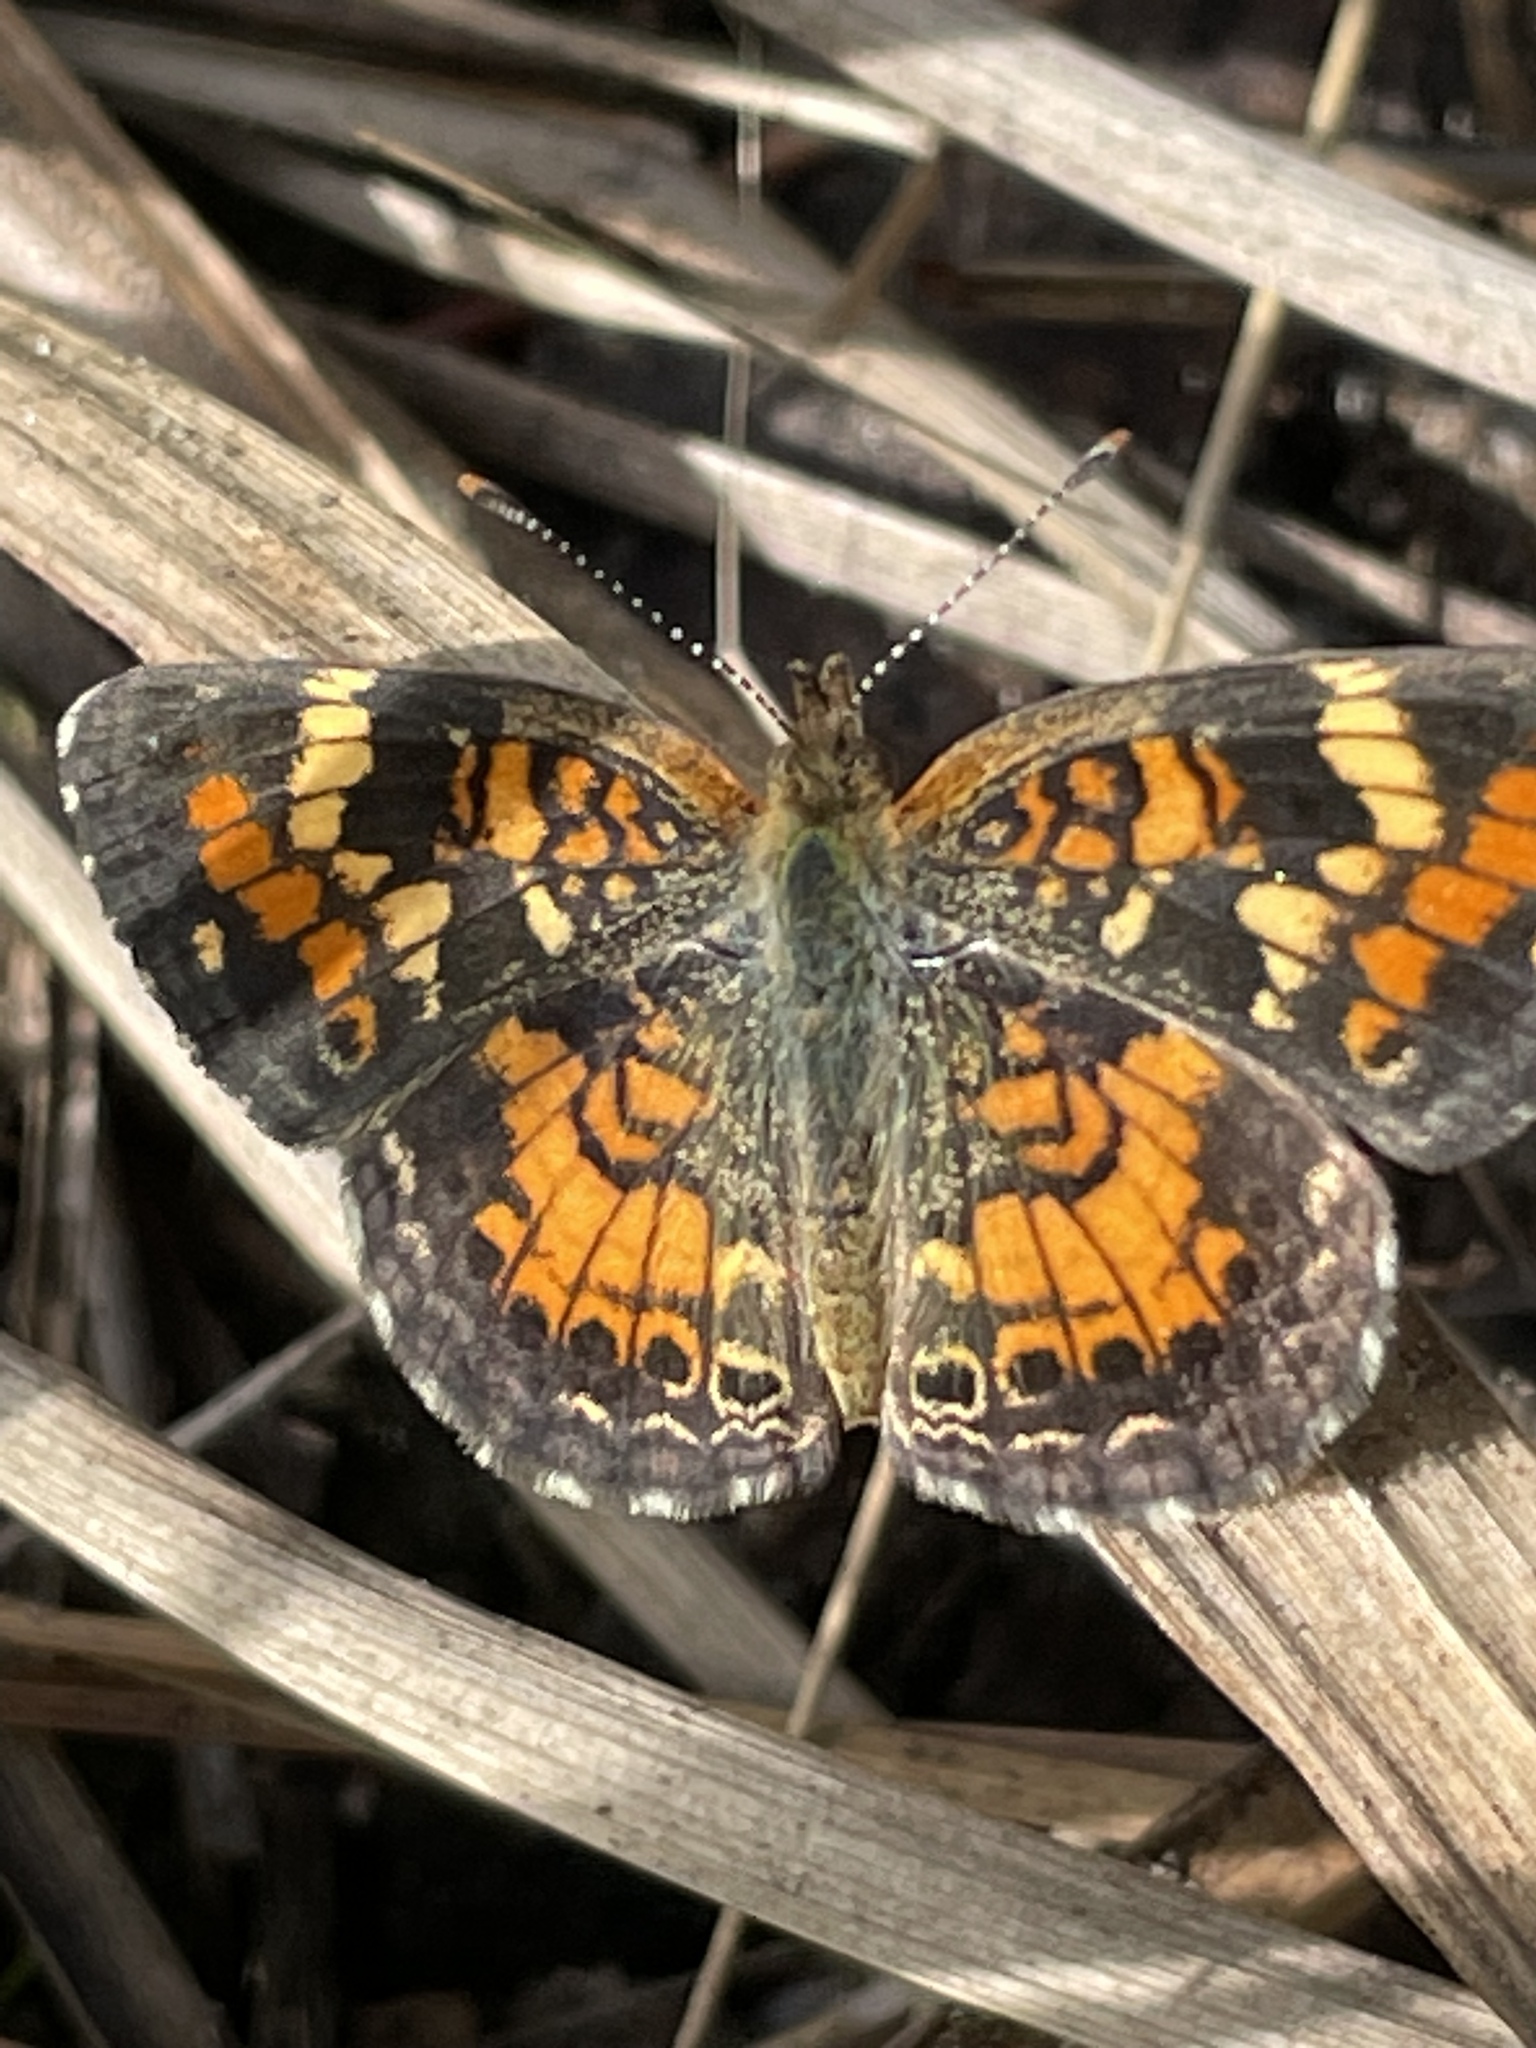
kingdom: Animalia
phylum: Arthropoda
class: Insecta
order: Lepidoptera
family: Nymphalidae
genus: Phyciodes
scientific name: Phyciodes phaon
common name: Phaon crescent
